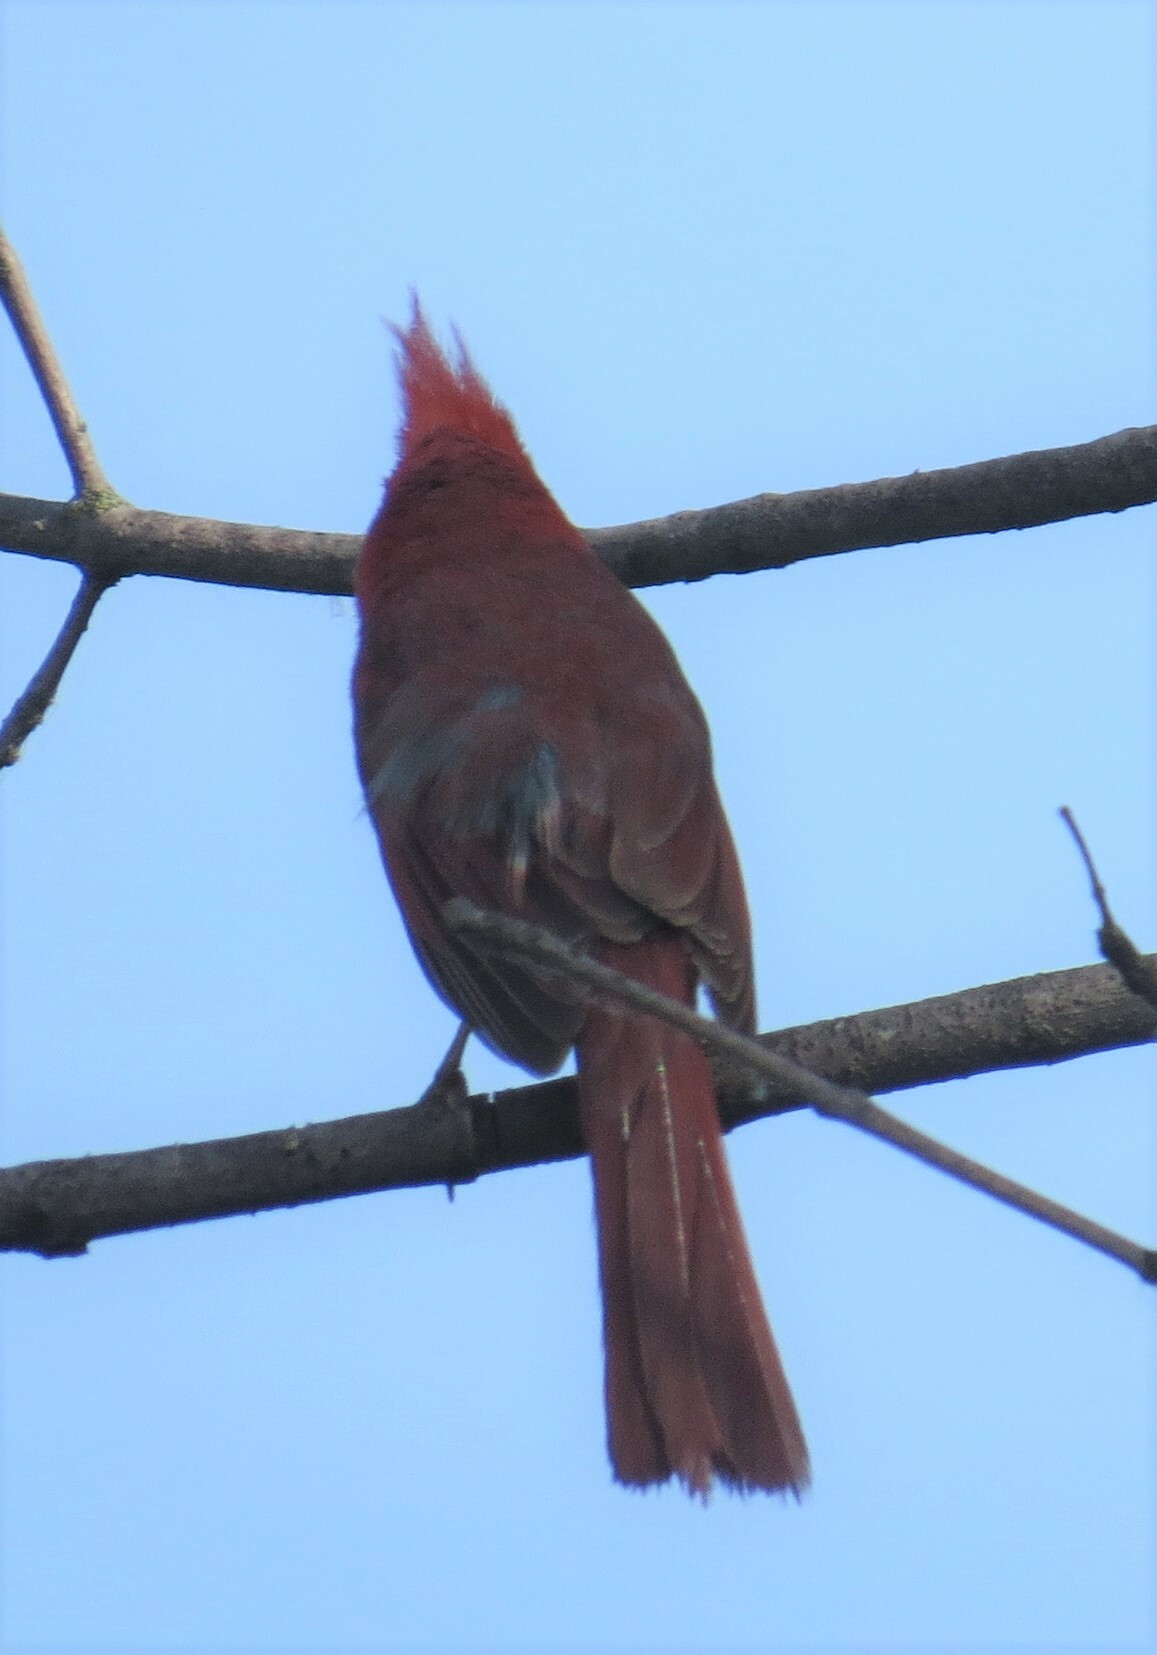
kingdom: Animalia
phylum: Chordata
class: Aves
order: Passeriformes
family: Cardinalidae
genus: Cardinalis
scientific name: Cardinalis cardinalis
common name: Northern cardinal
